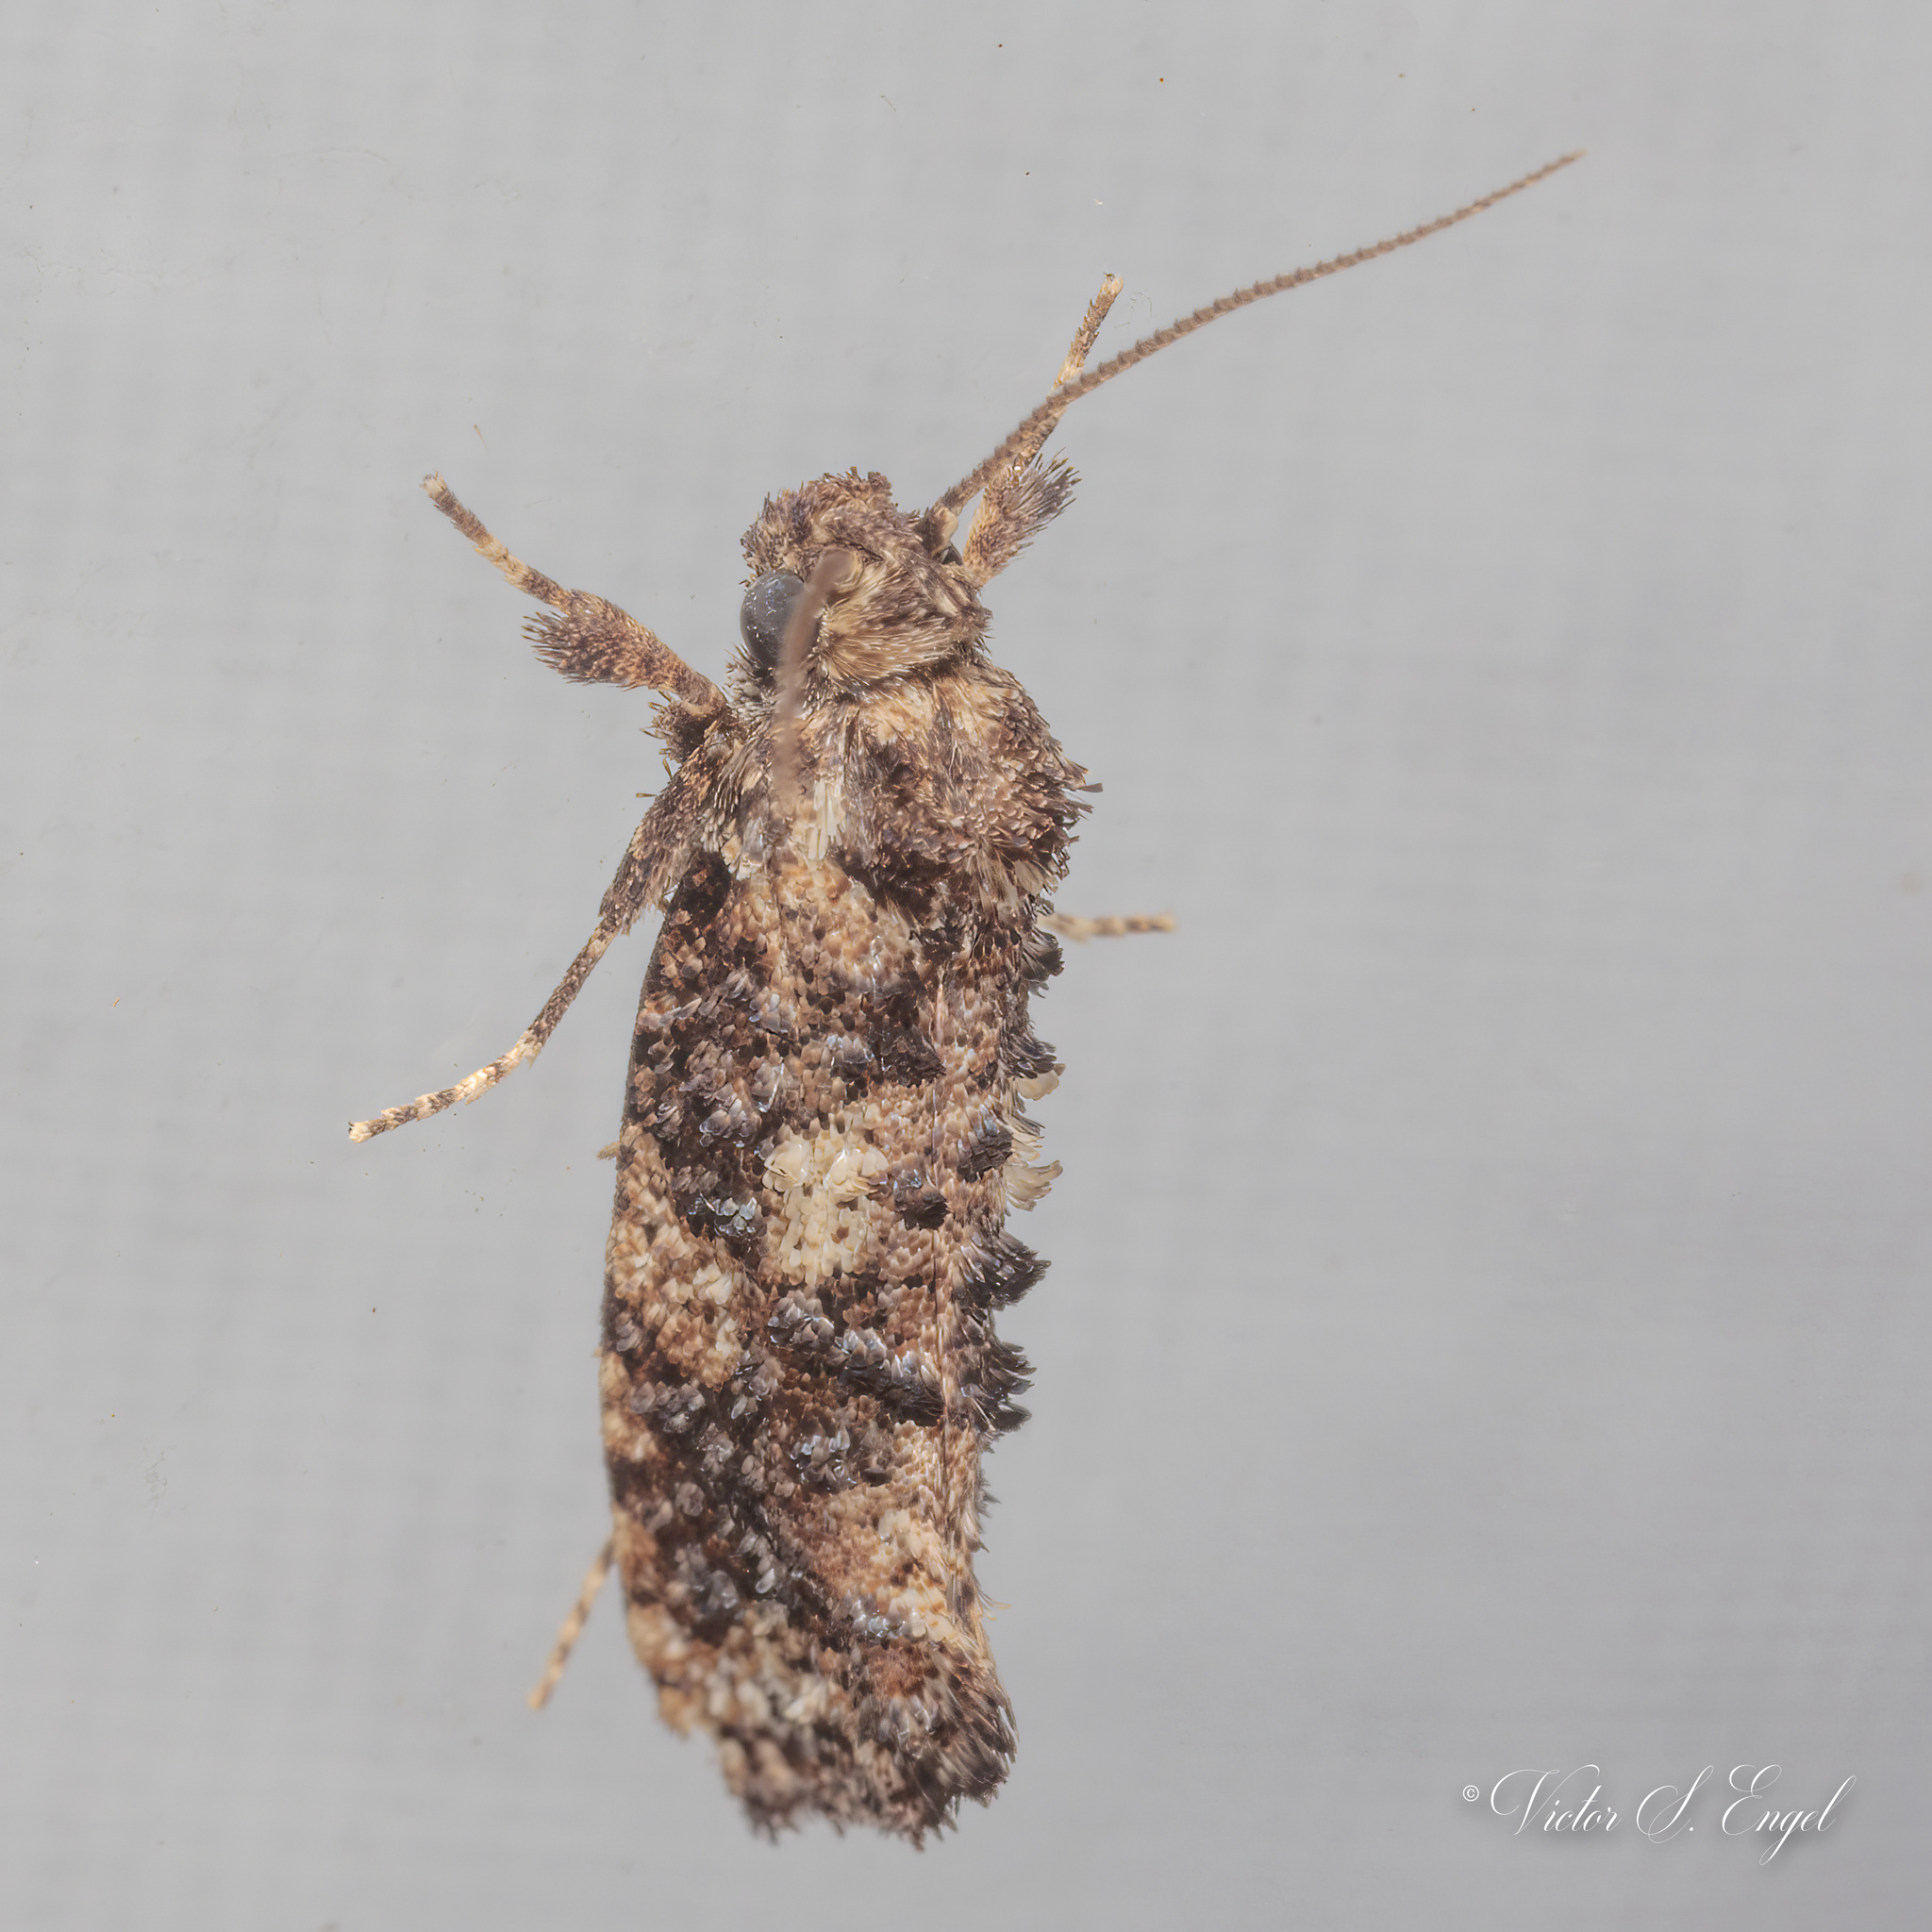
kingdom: Animalia
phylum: Arthropoda
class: Insecta
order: Lepidoptera
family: Tineidae
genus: Acrolophus
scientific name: Acrolophus cressoni
